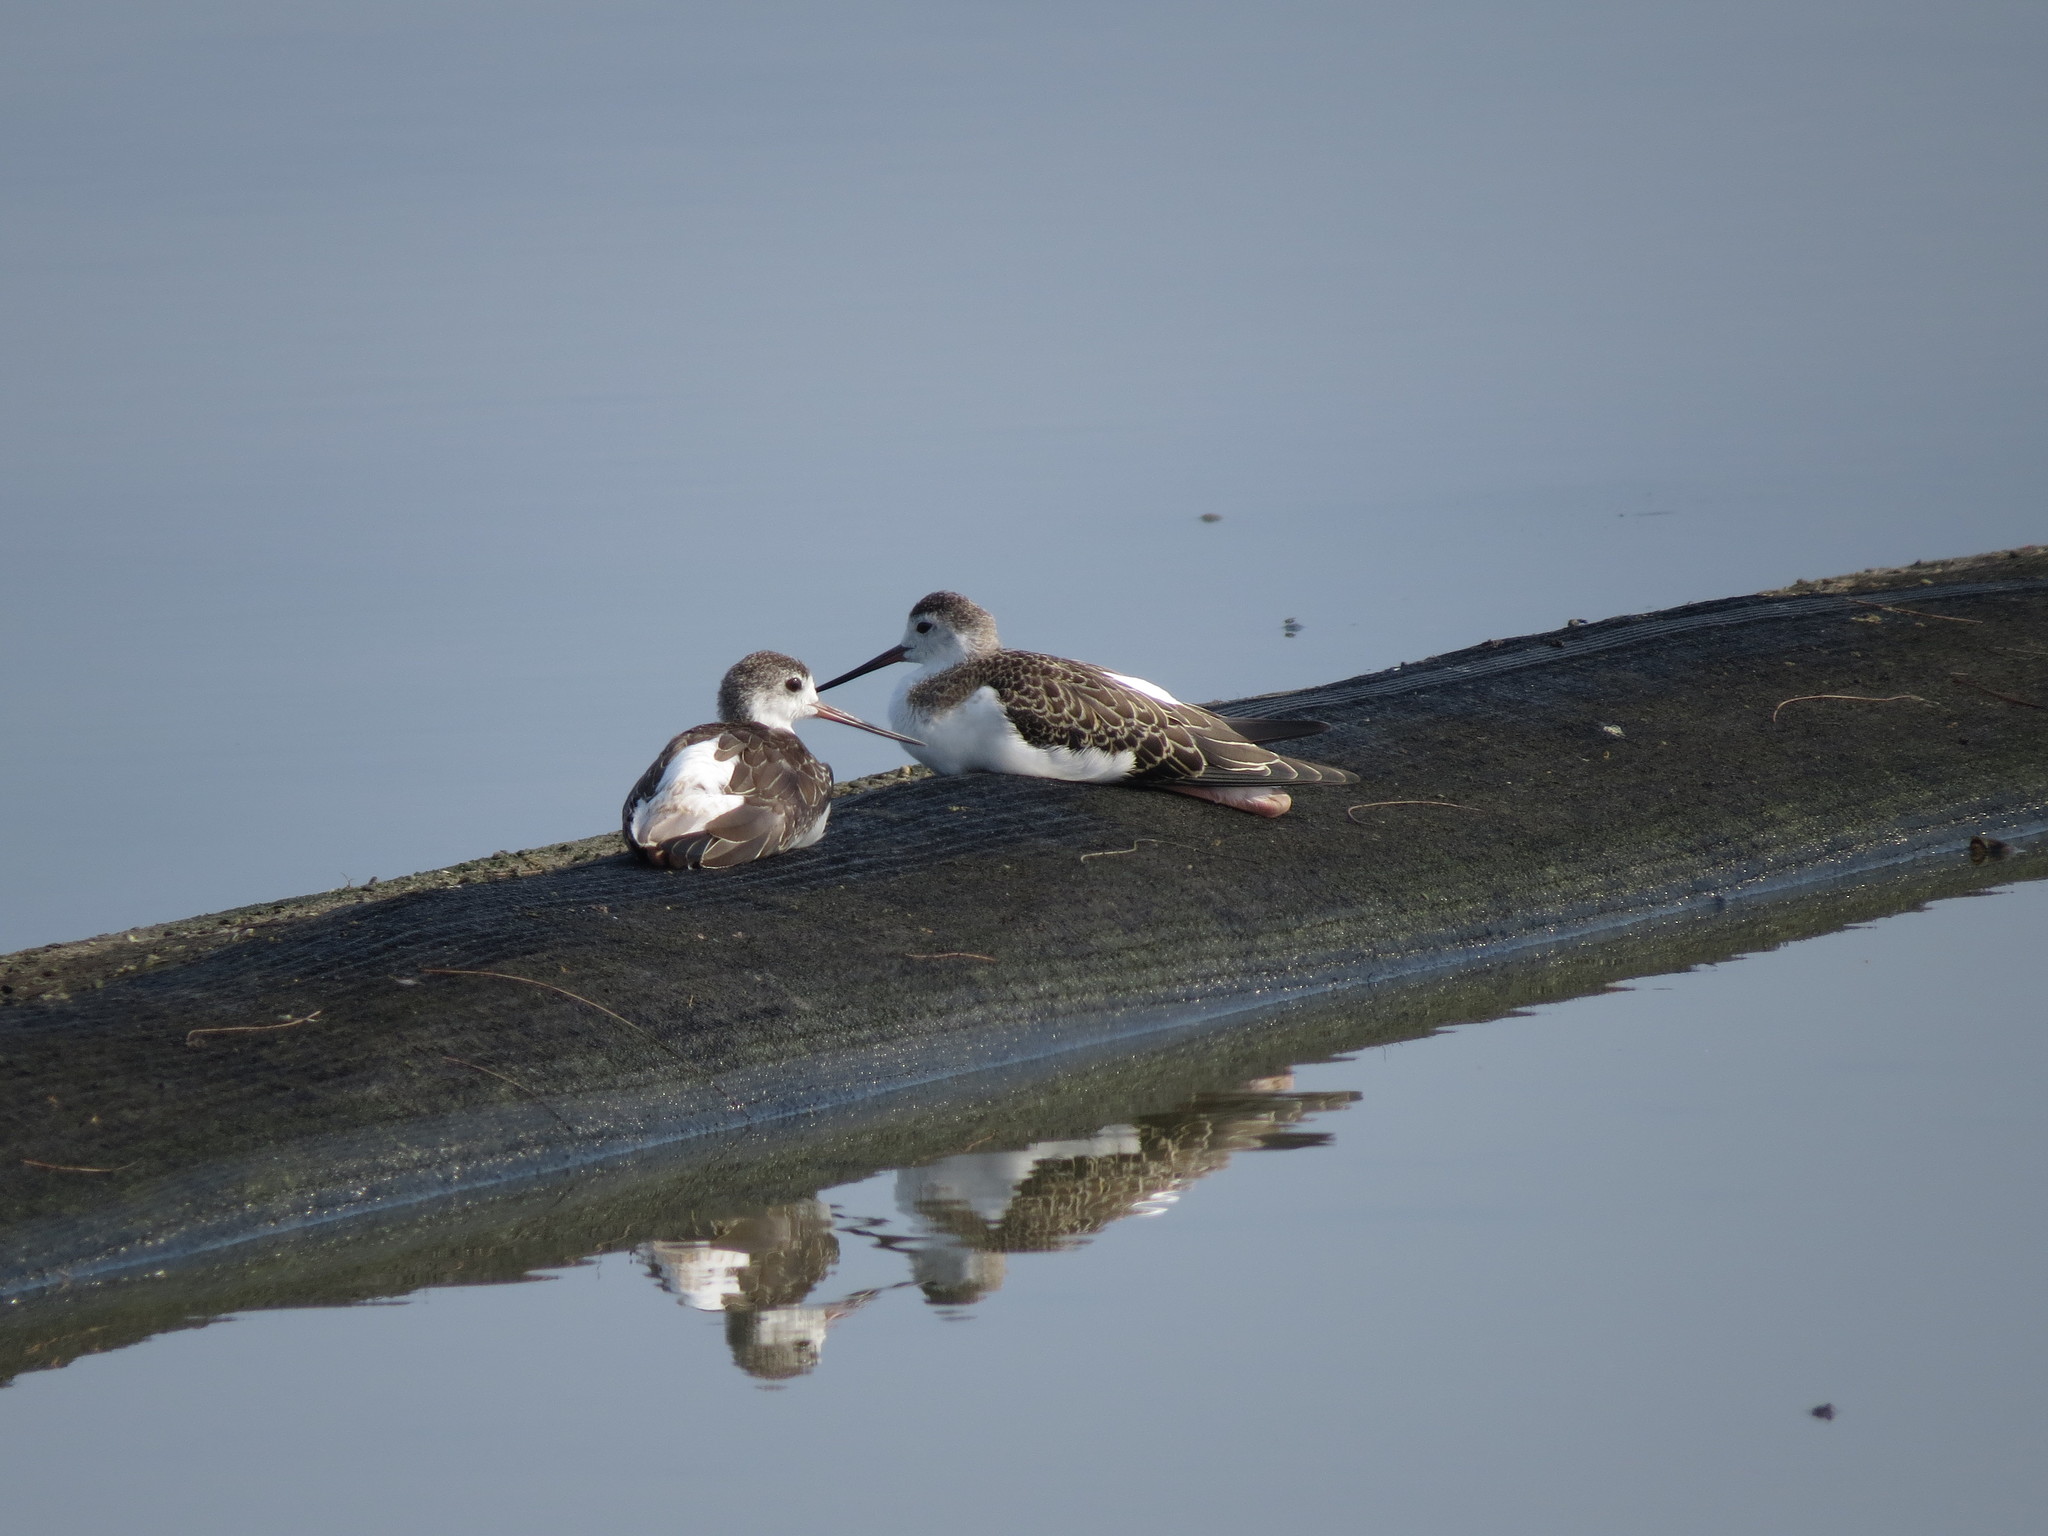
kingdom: Animalia
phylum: Chordata
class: Aves
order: Charadriiformes
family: Recurvirostridae
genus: Himantopus
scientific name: Himantopus himantopus
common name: Black-winged stilt
